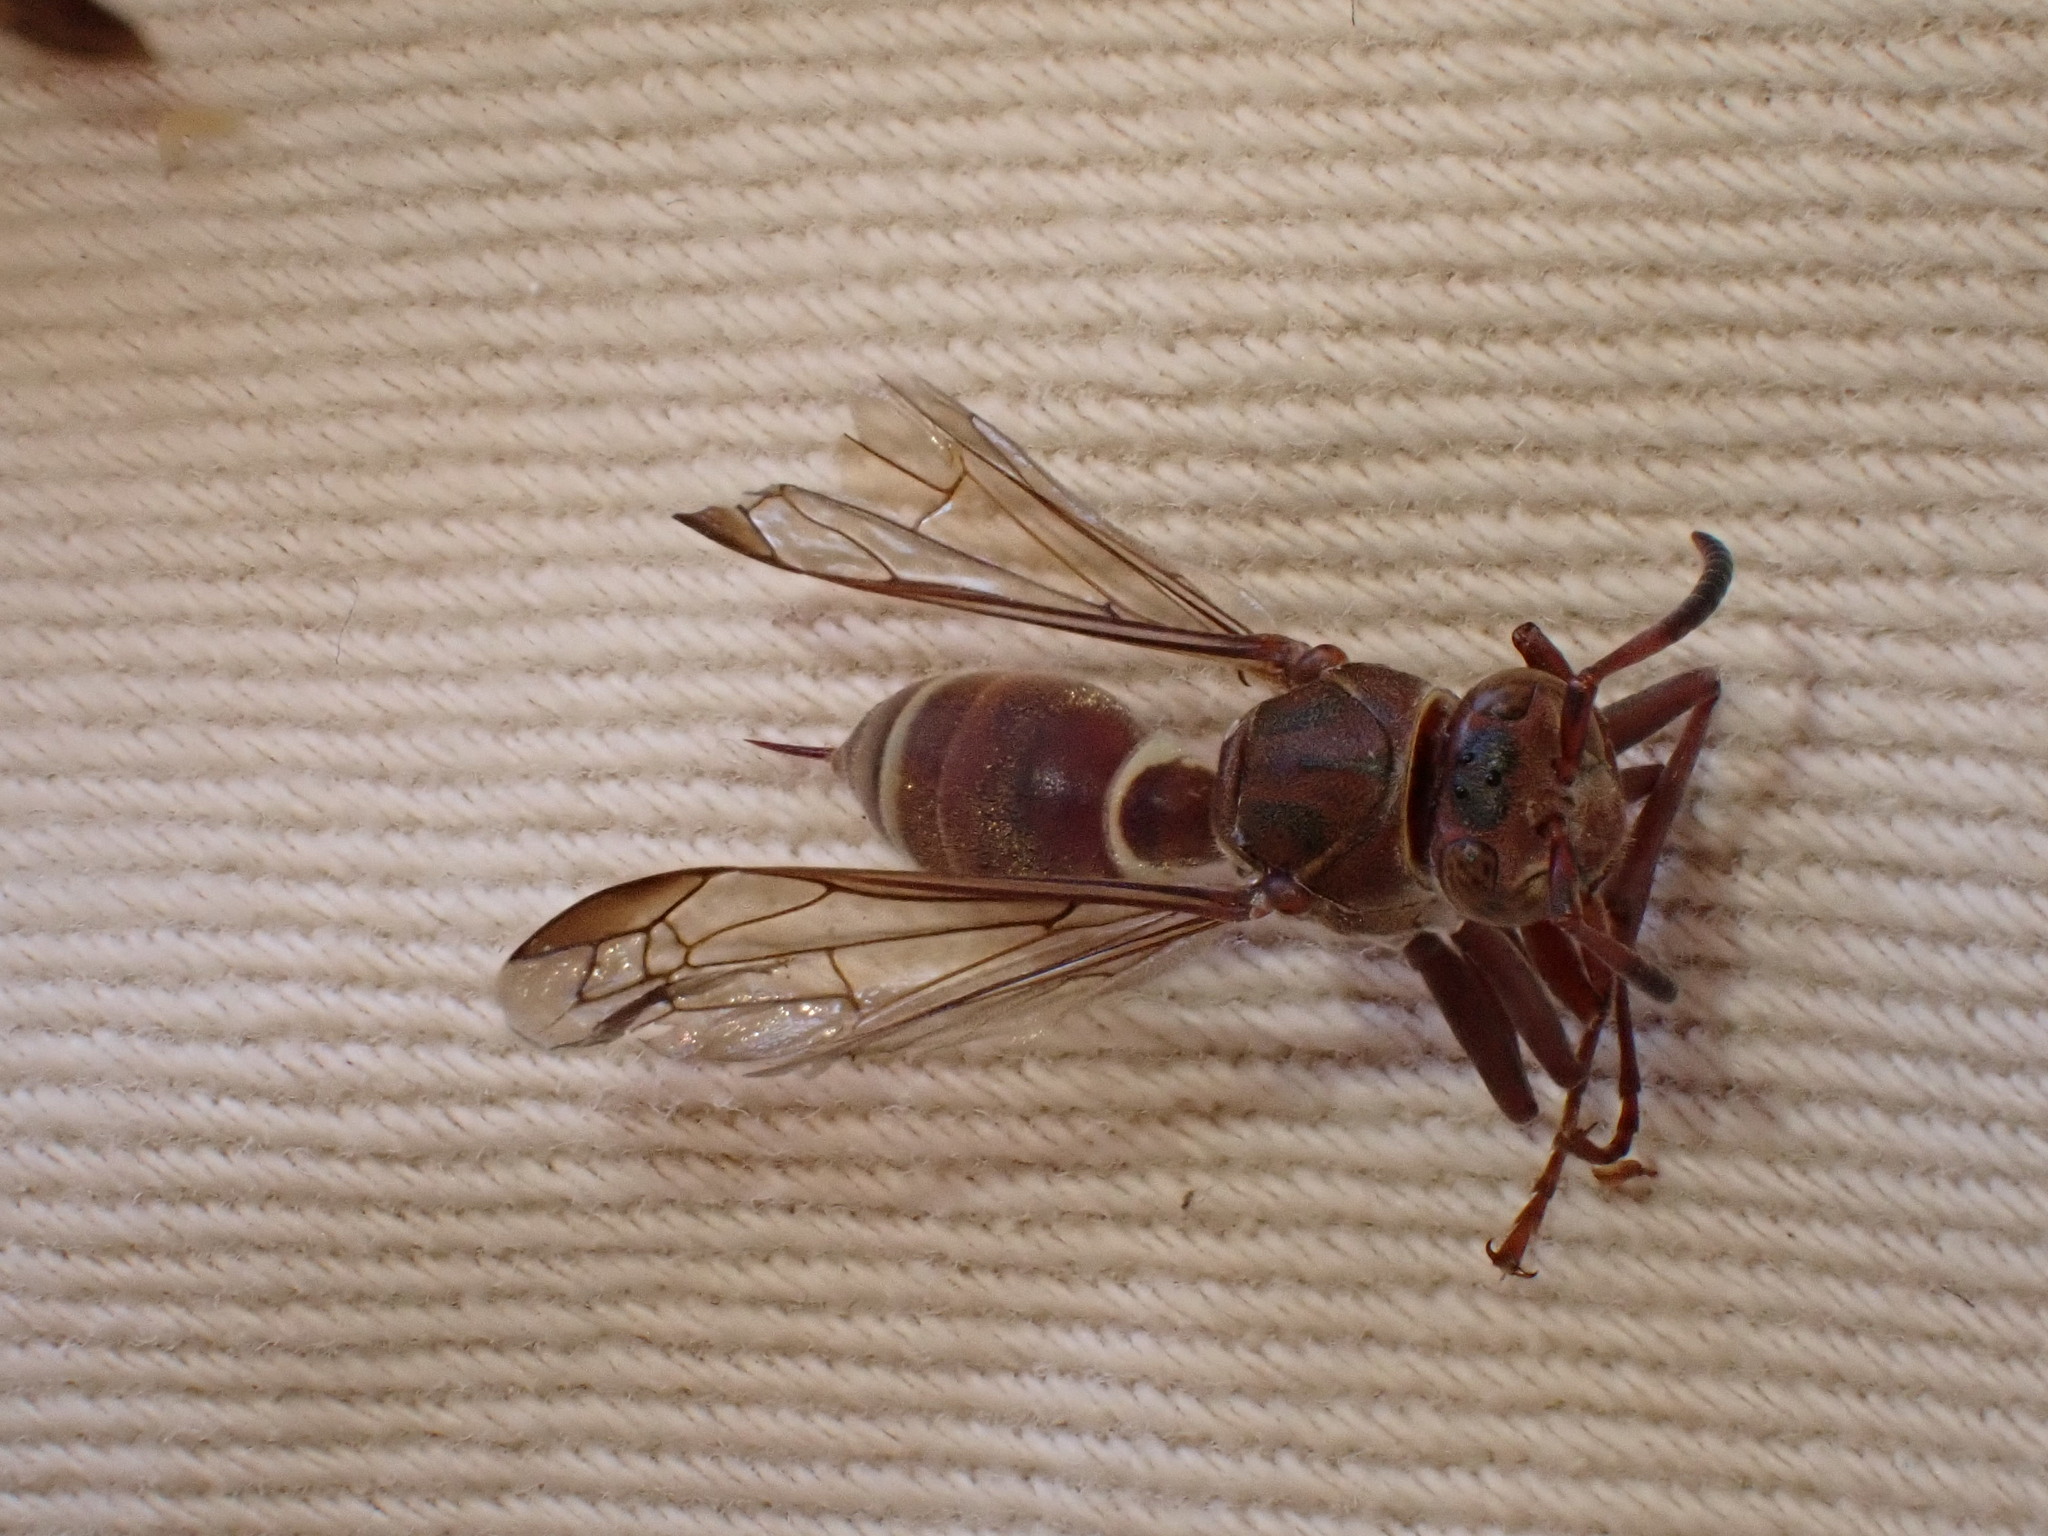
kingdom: Animalia
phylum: Arthropoda
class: Insecta
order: Hymenoptera
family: Eumenidae
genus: Polistes
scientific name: Polistes badius
